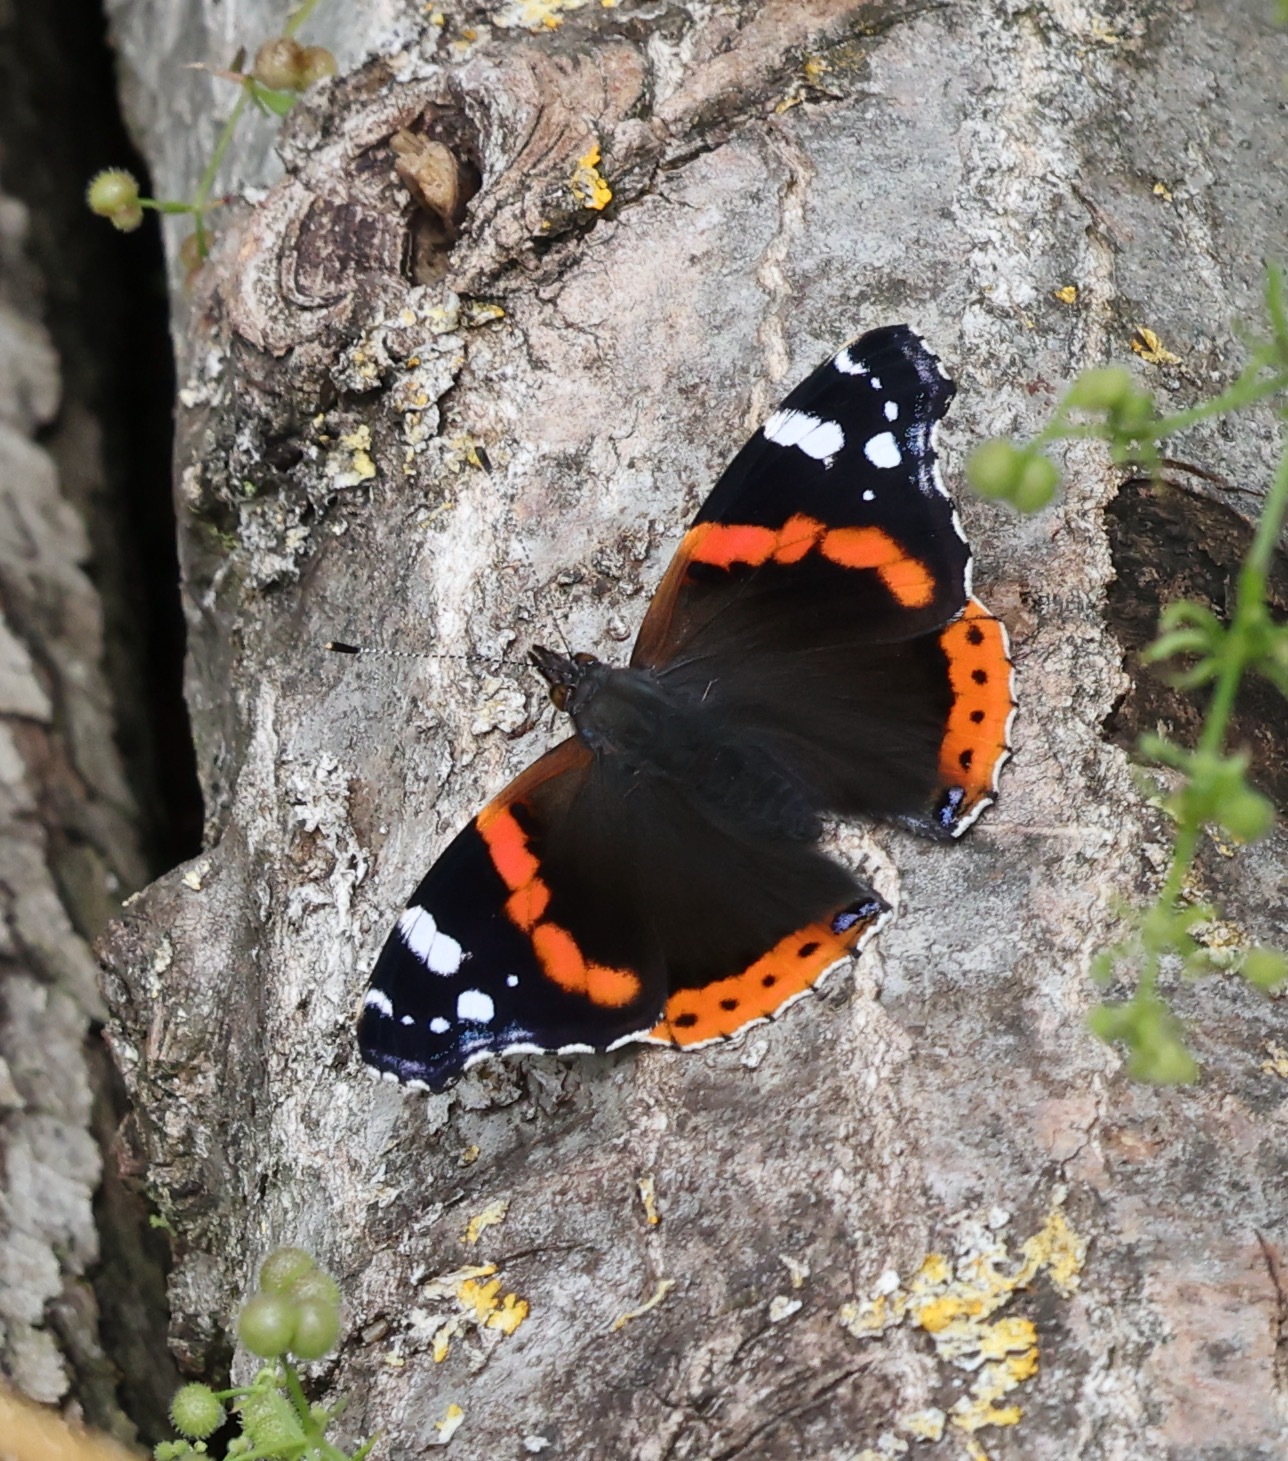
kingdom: Animalia
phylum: Arthropoda
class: Insecta
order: Lepidoptera
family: Nymphalidae
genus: Vanessa
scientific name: Vanessa atalanta
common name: Red admiral
